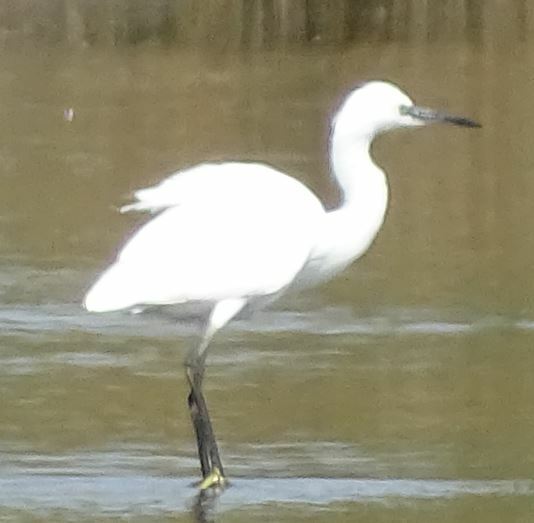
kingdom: Animalia
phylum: Chordata
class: Aves
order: Pelecaniformes
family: Ardeidae
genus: Egretta
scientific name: Egretta garzetta
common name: Little egret
